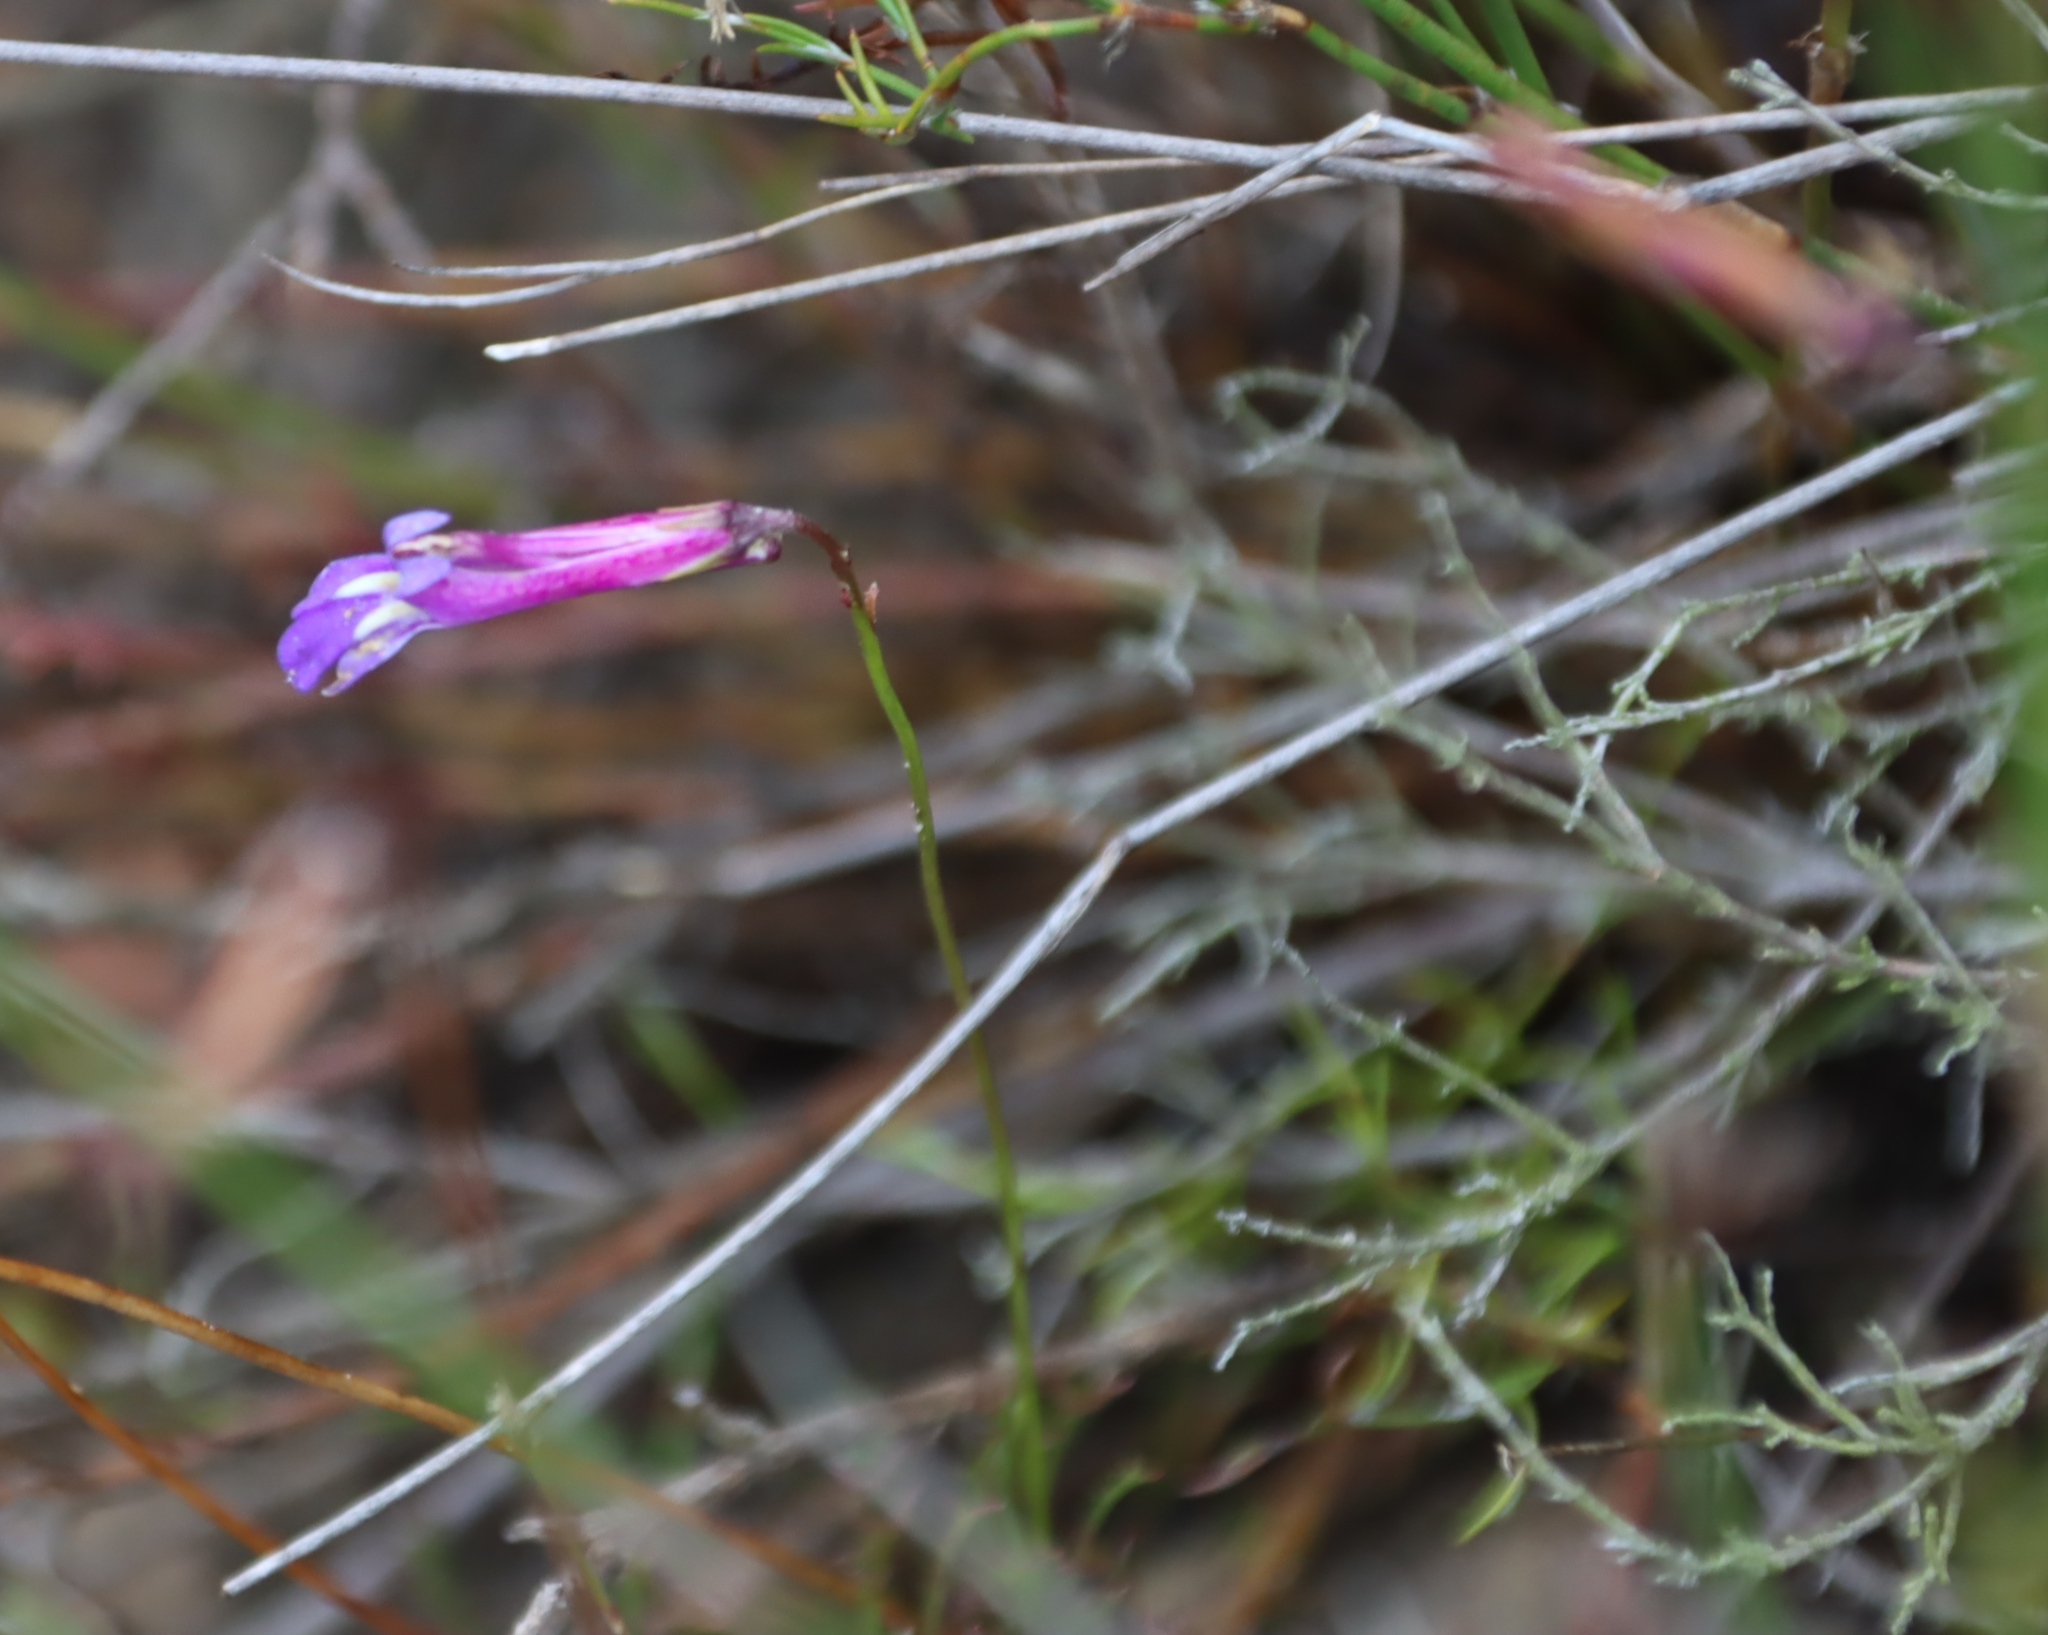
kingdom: Plantae
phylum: Tracheophyta
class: Magnoliopsida
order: Asterales
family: Campanulaceae
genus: Lobelia
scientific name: Lobelia coronopifolia
